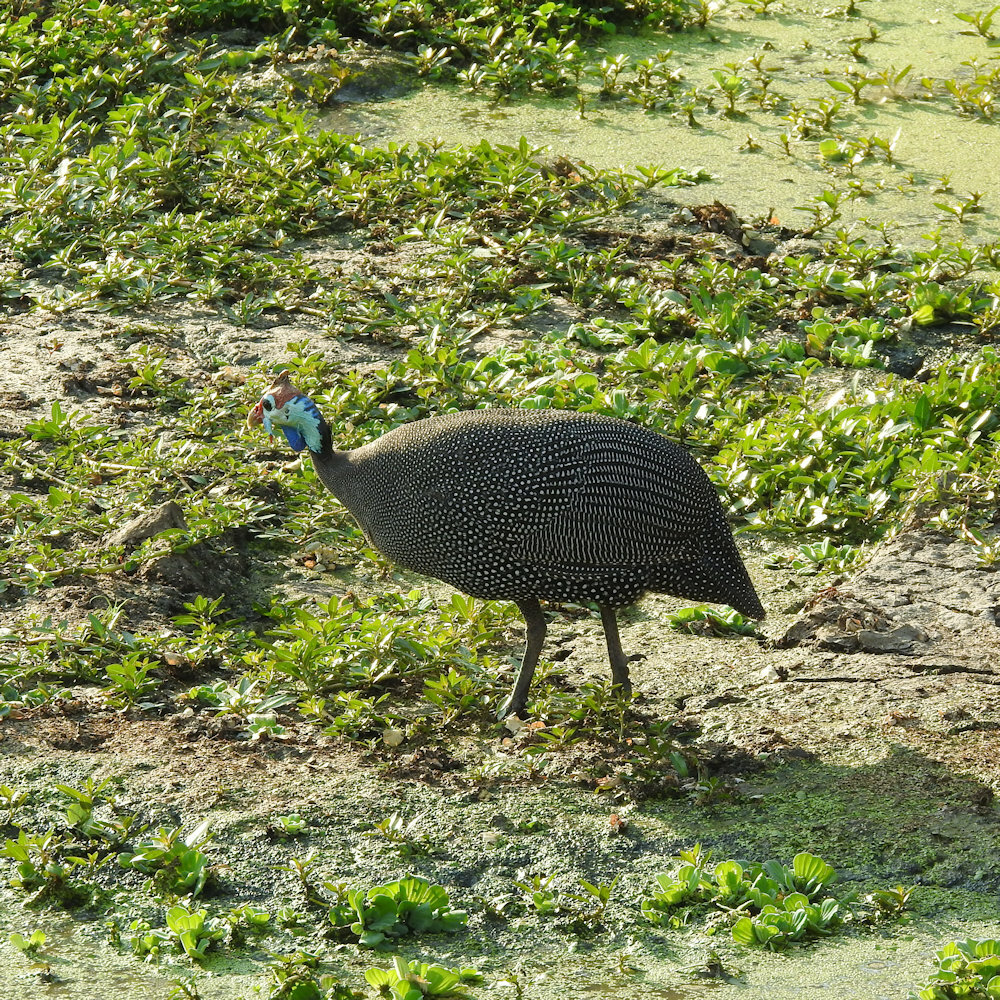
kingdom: Animalia
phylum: Chordata
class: Aves
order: Galliformes
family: Numididae
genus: Numida
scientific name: Numida meleagris
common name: Helmeted guineafowl
